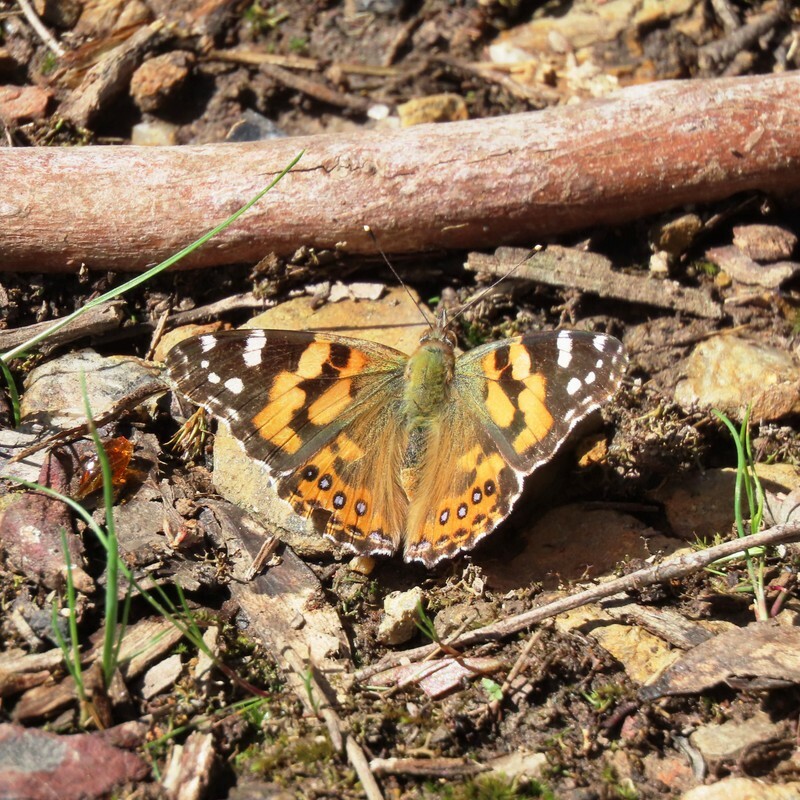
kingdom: Animalia
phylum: Arthropoda
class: Insecta
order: Lepidoptera
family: Nymphalidae
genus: Vanessa
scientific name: Vanessa kershawi
